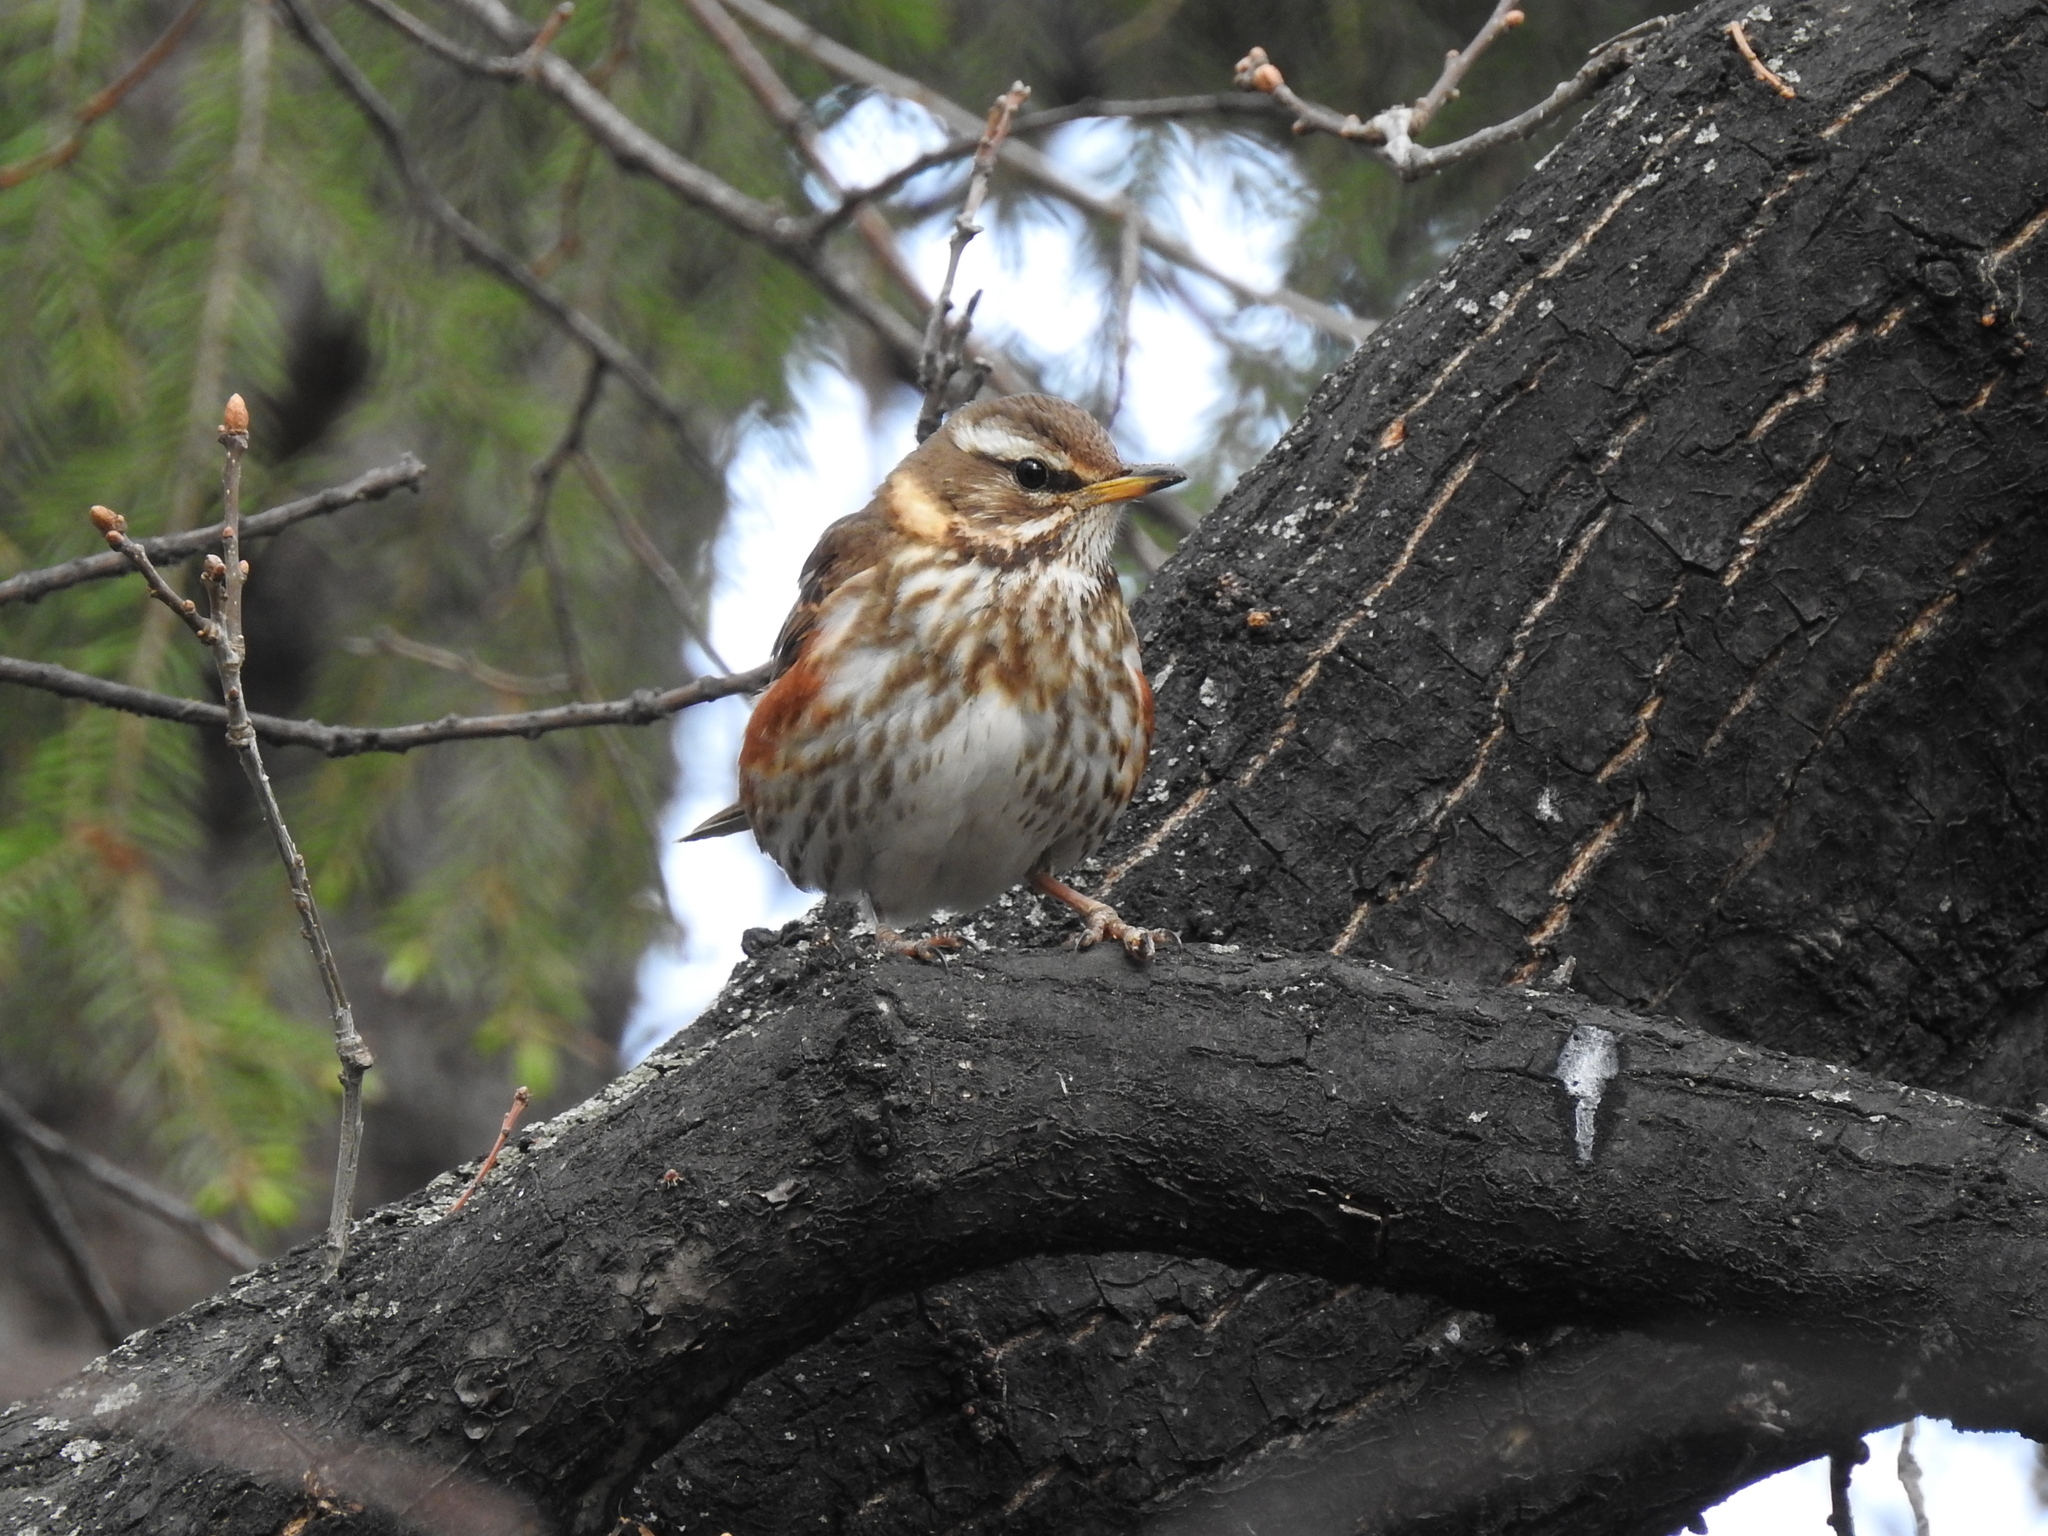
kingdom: Animalia
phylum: Chordata
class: Aves
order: Passeriformes
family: Turdidae
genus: Turdus
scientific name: Turdus iliacus
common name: Redwing
